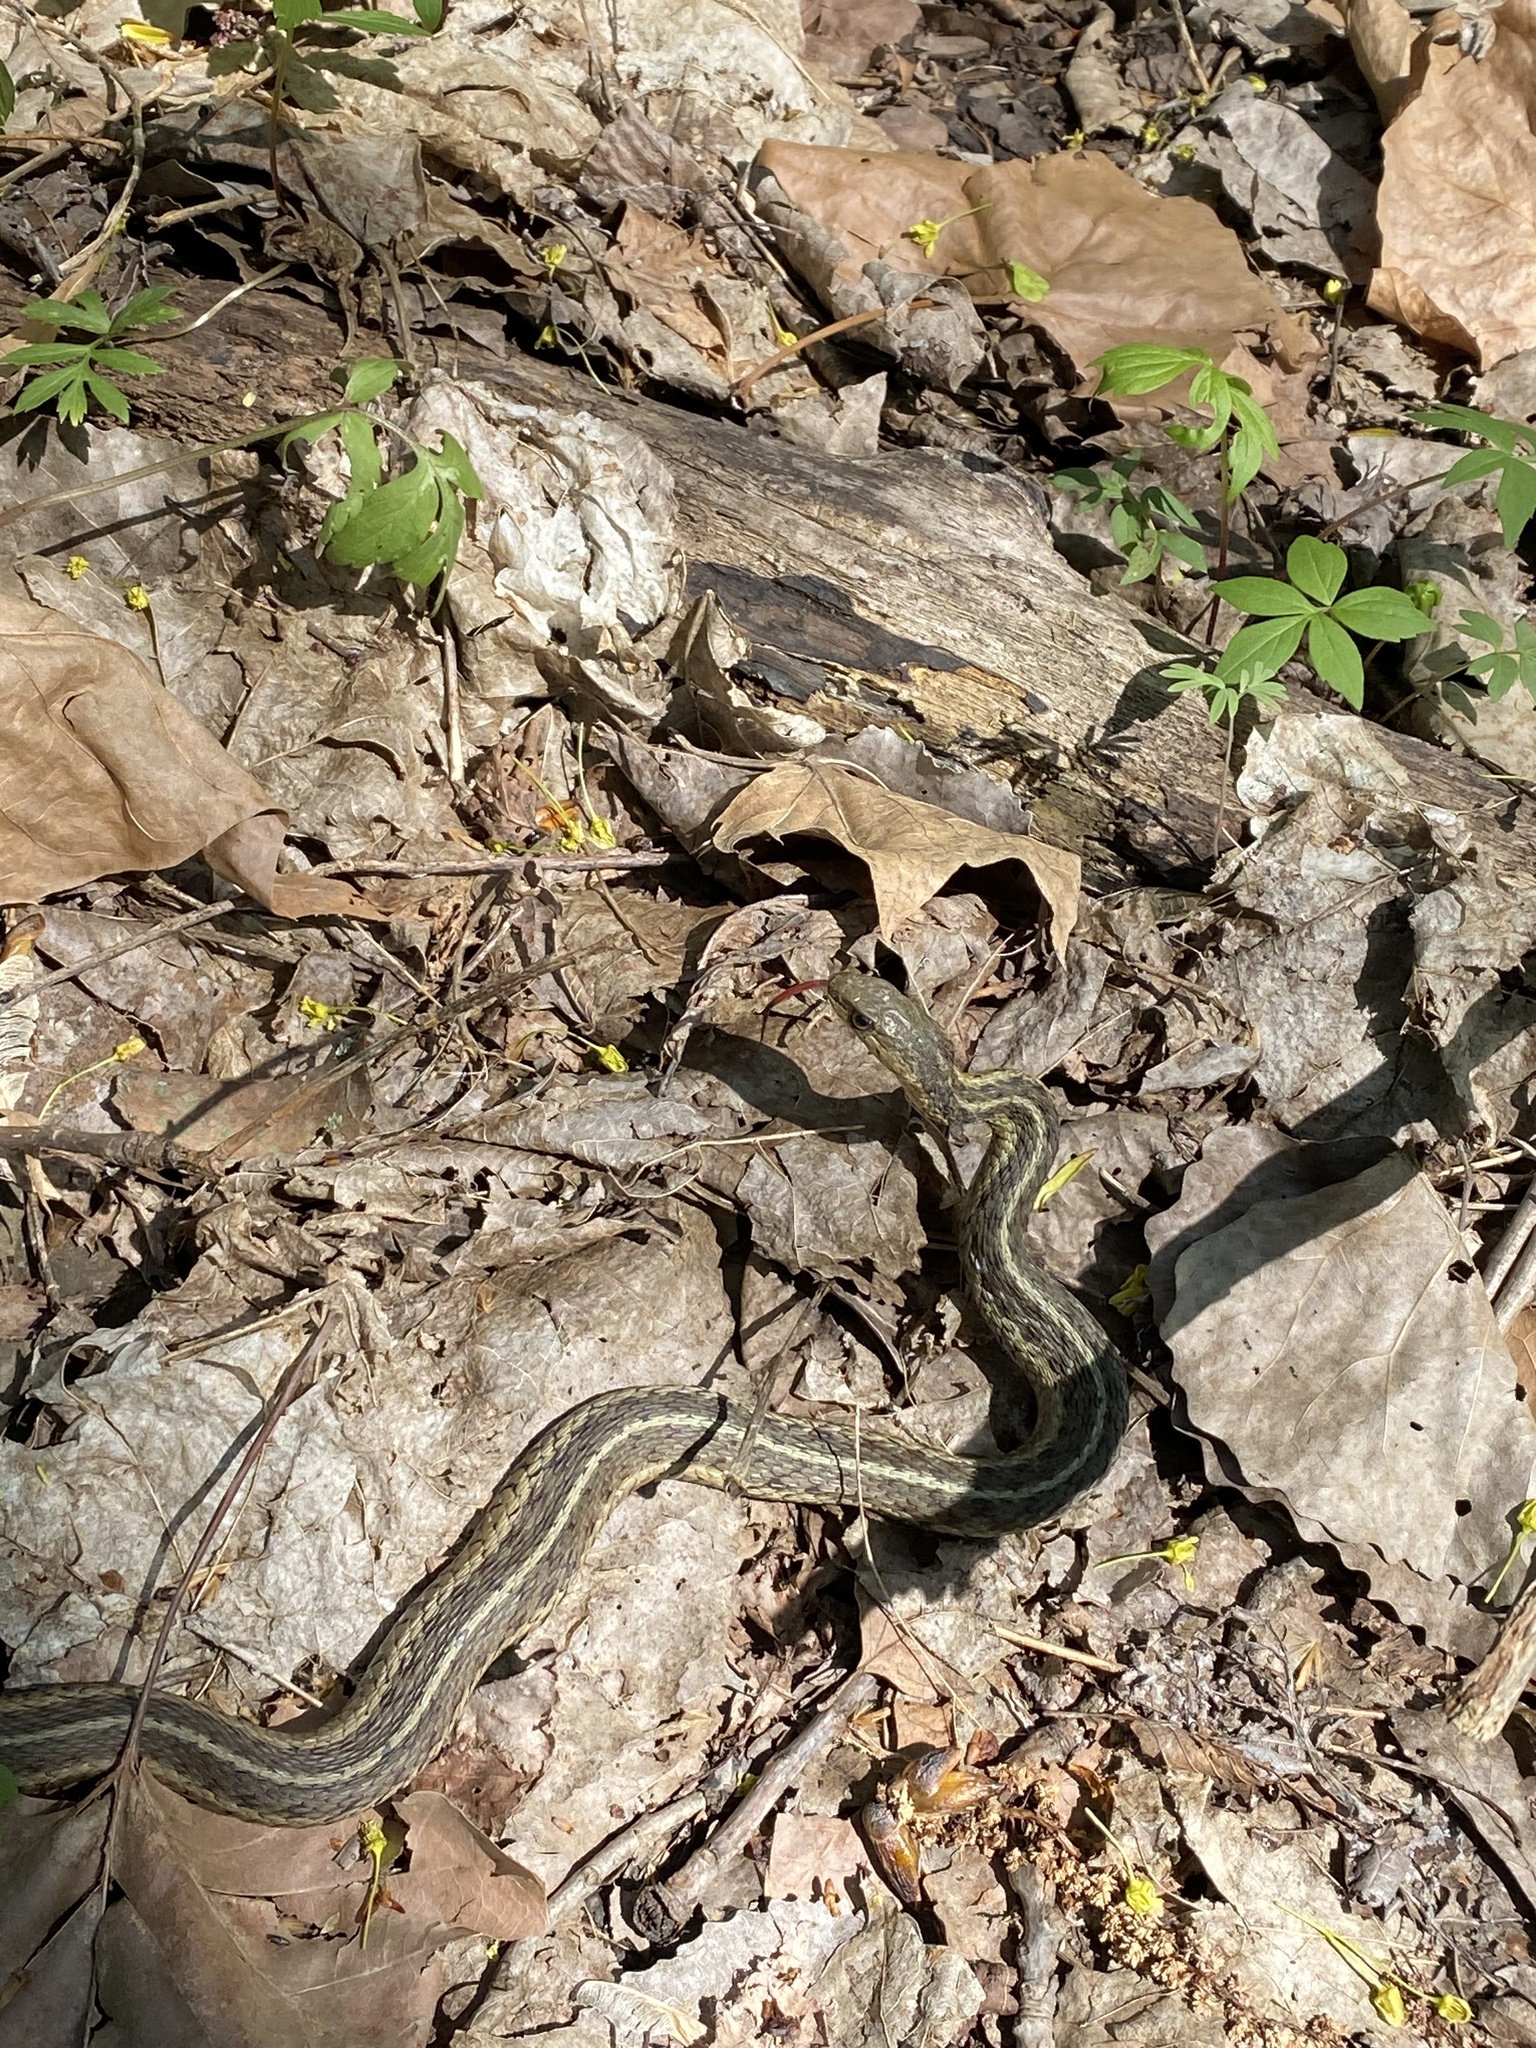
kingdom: Animalia
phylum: Chordata
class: Squamata
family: Colubridae
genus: Thamnophis
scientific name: Thamnophis sirtalis
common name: Common garter snake
